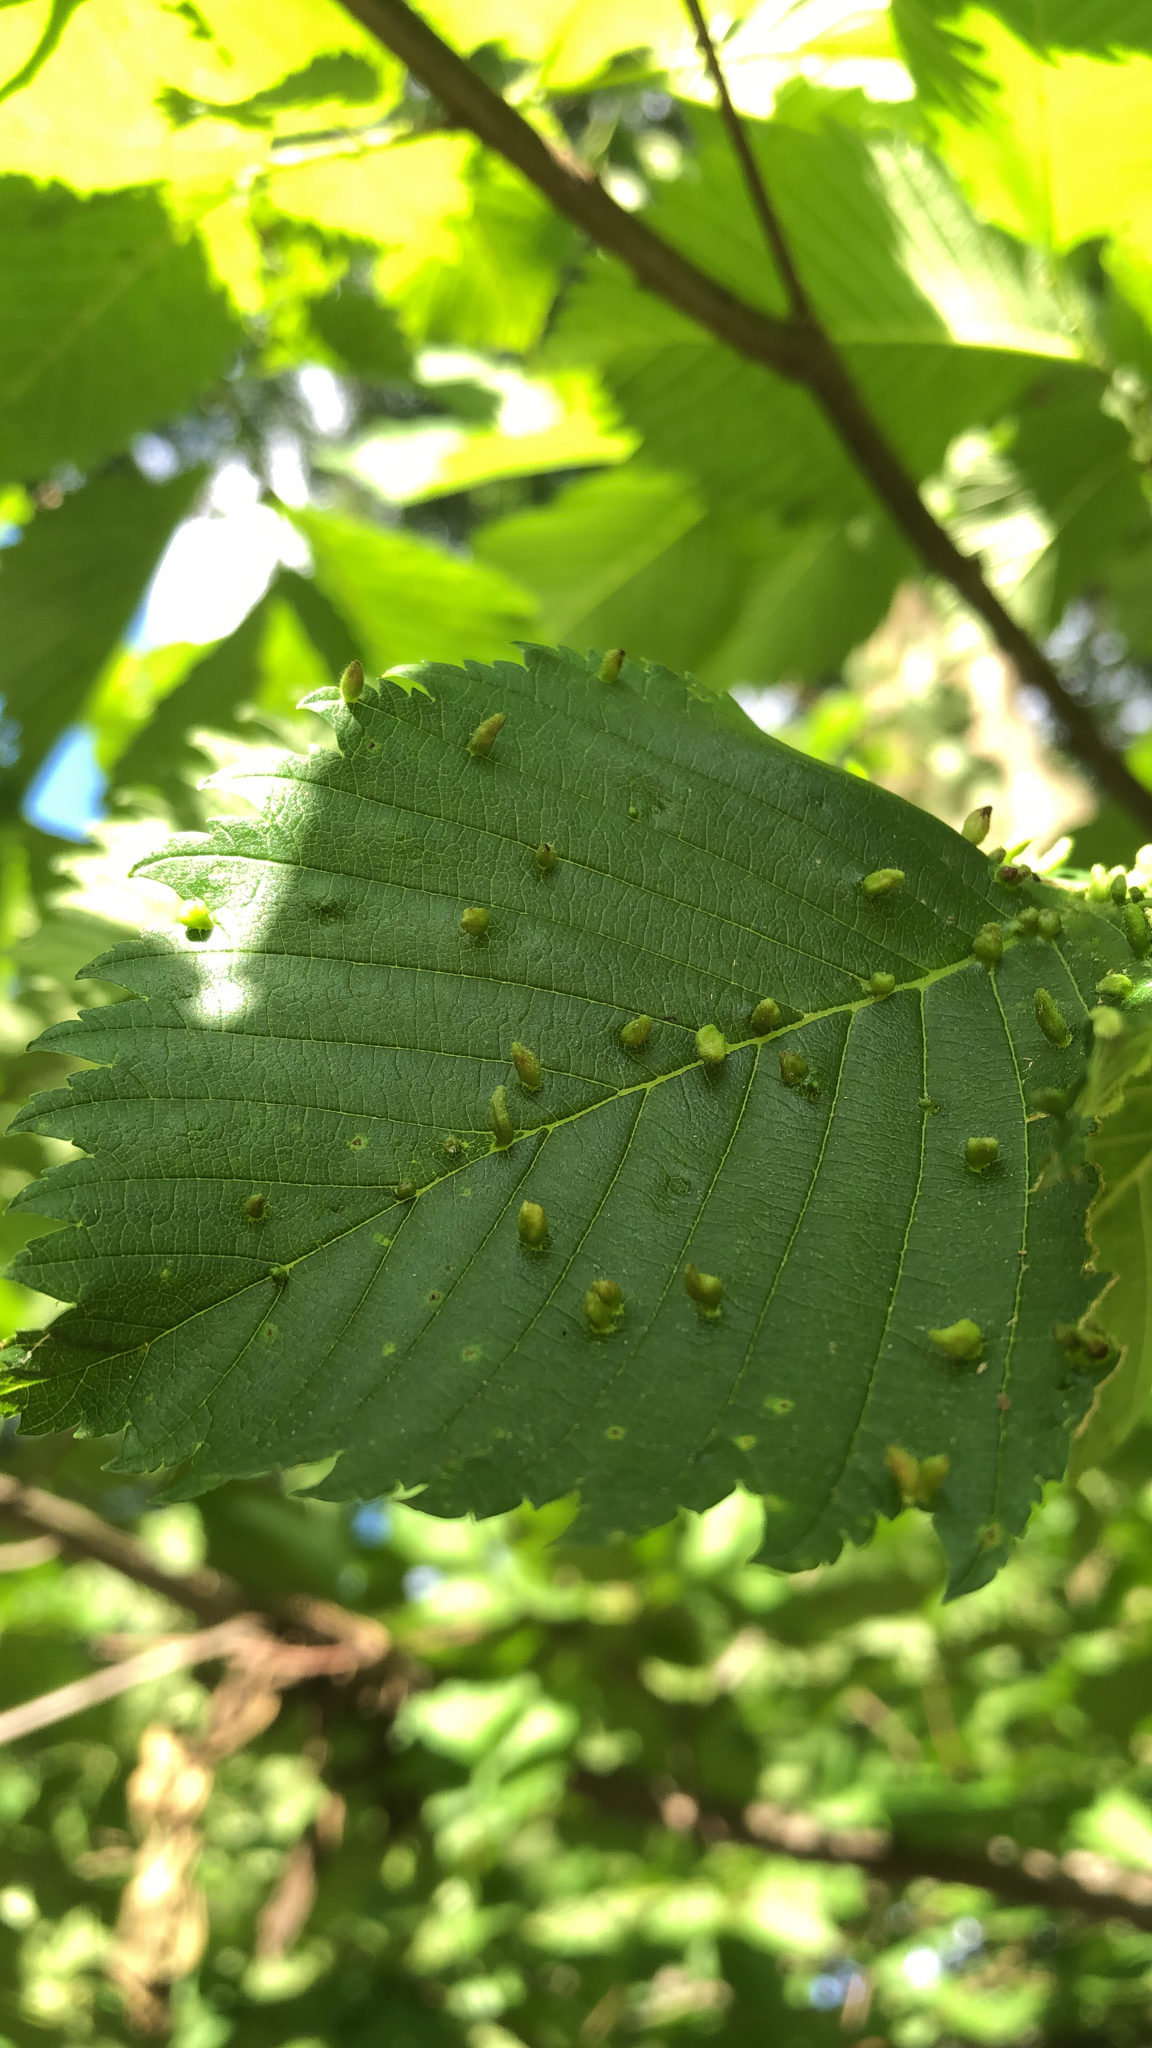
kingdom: Animalia
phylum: Arthropoda
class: Arachnida
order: Trombidiformes
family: Eriophyidae
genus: Aceria
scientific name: Aceria
